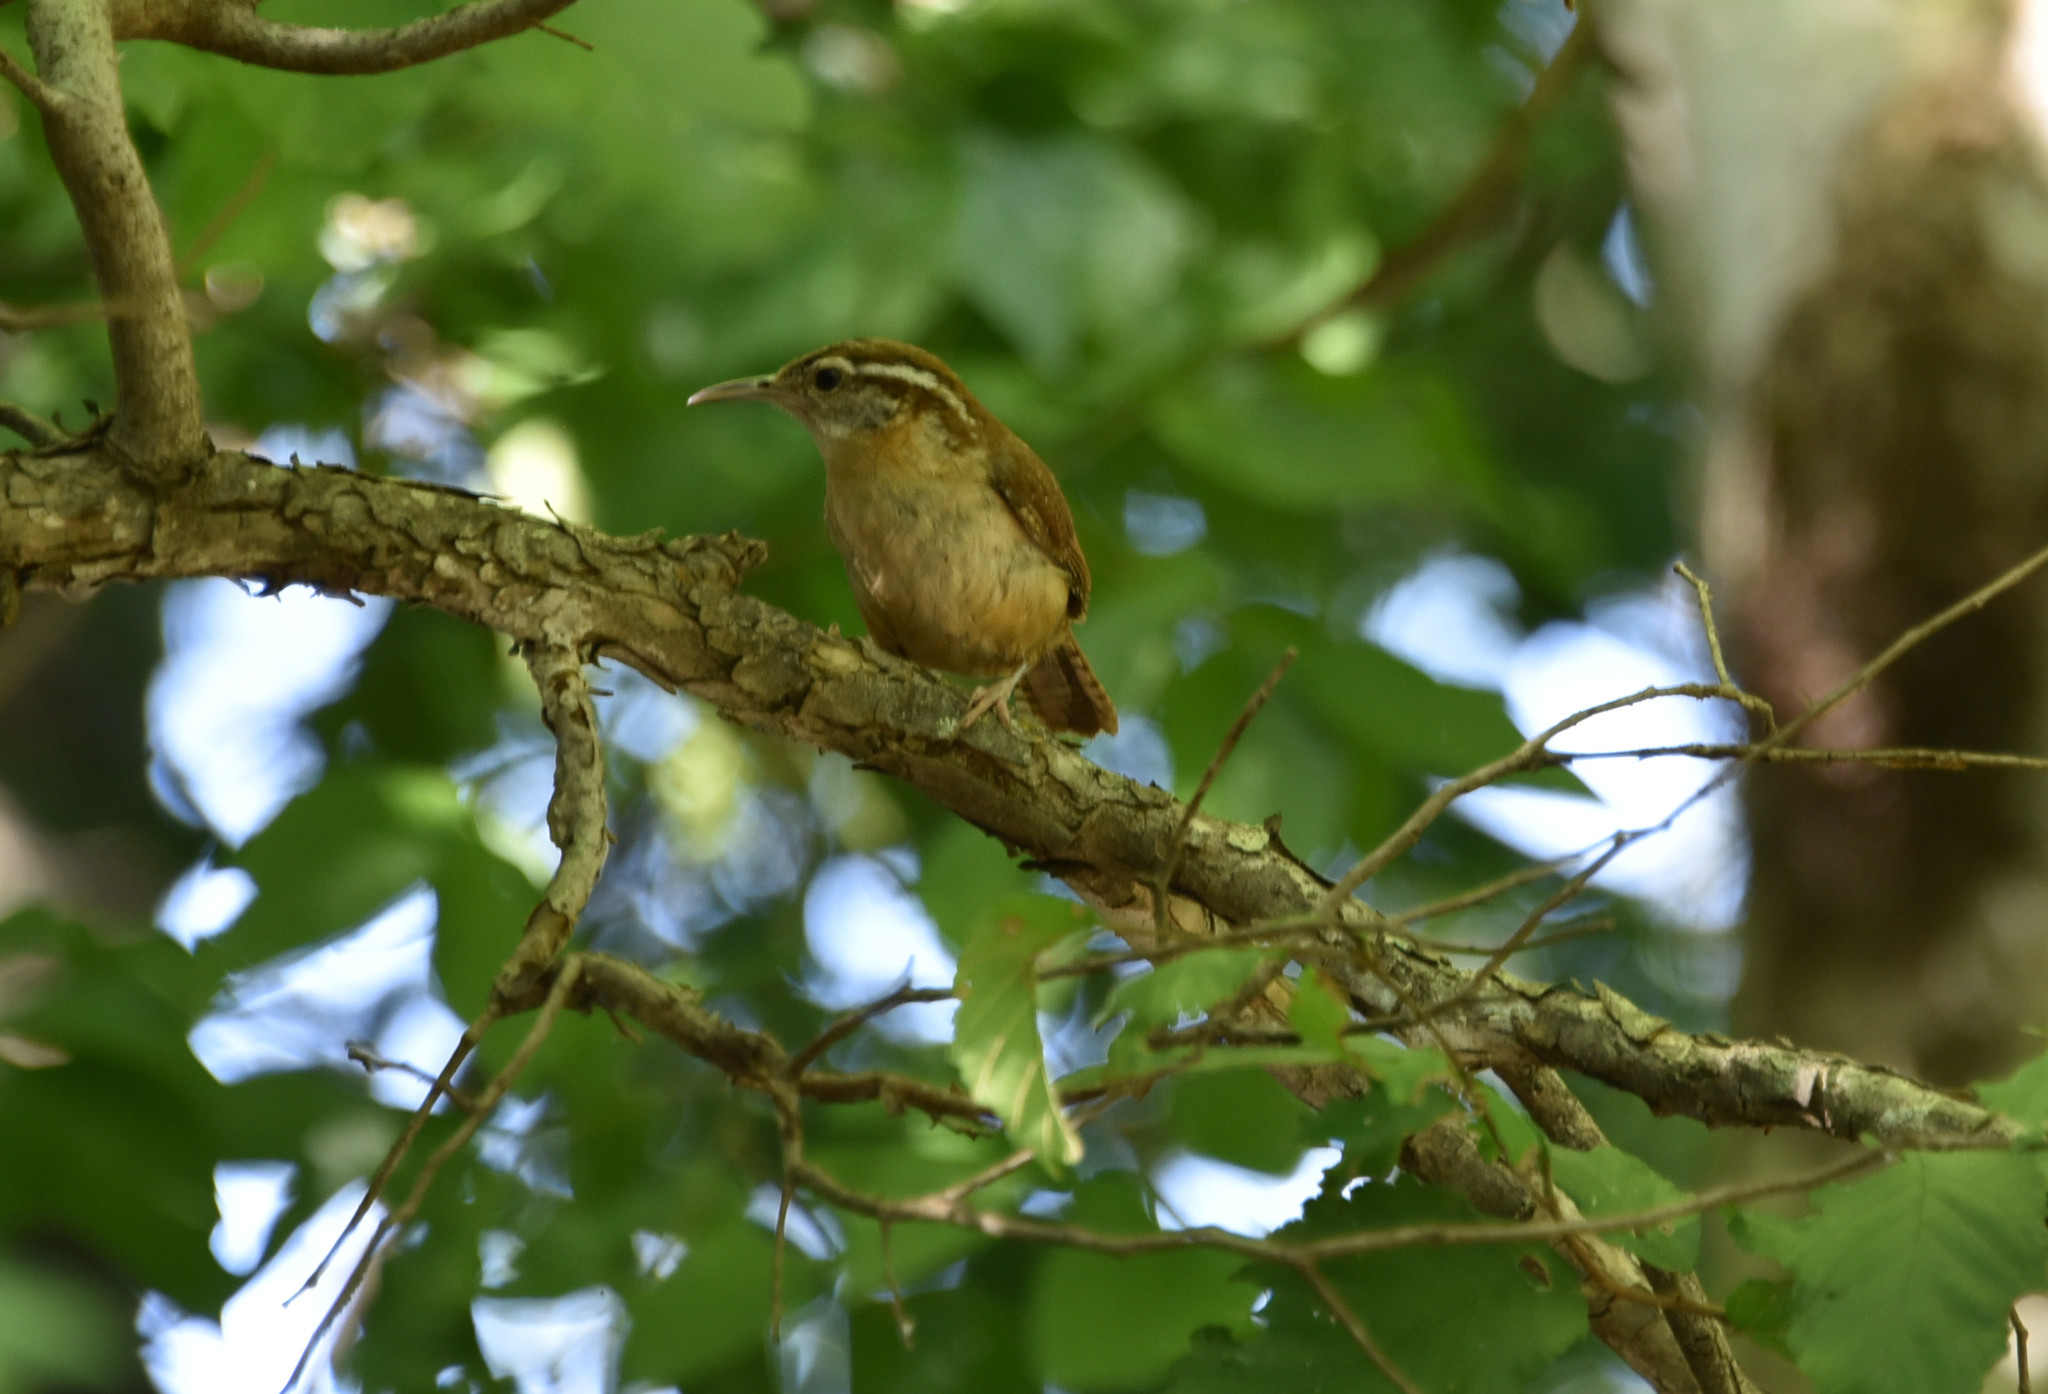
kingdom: Animalia
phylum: Chordata
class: Aves
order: Passeriformes
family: Troglodytidae
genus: Thryothorus
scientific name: Thryothorus ludovicianus
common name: Carolina wren
